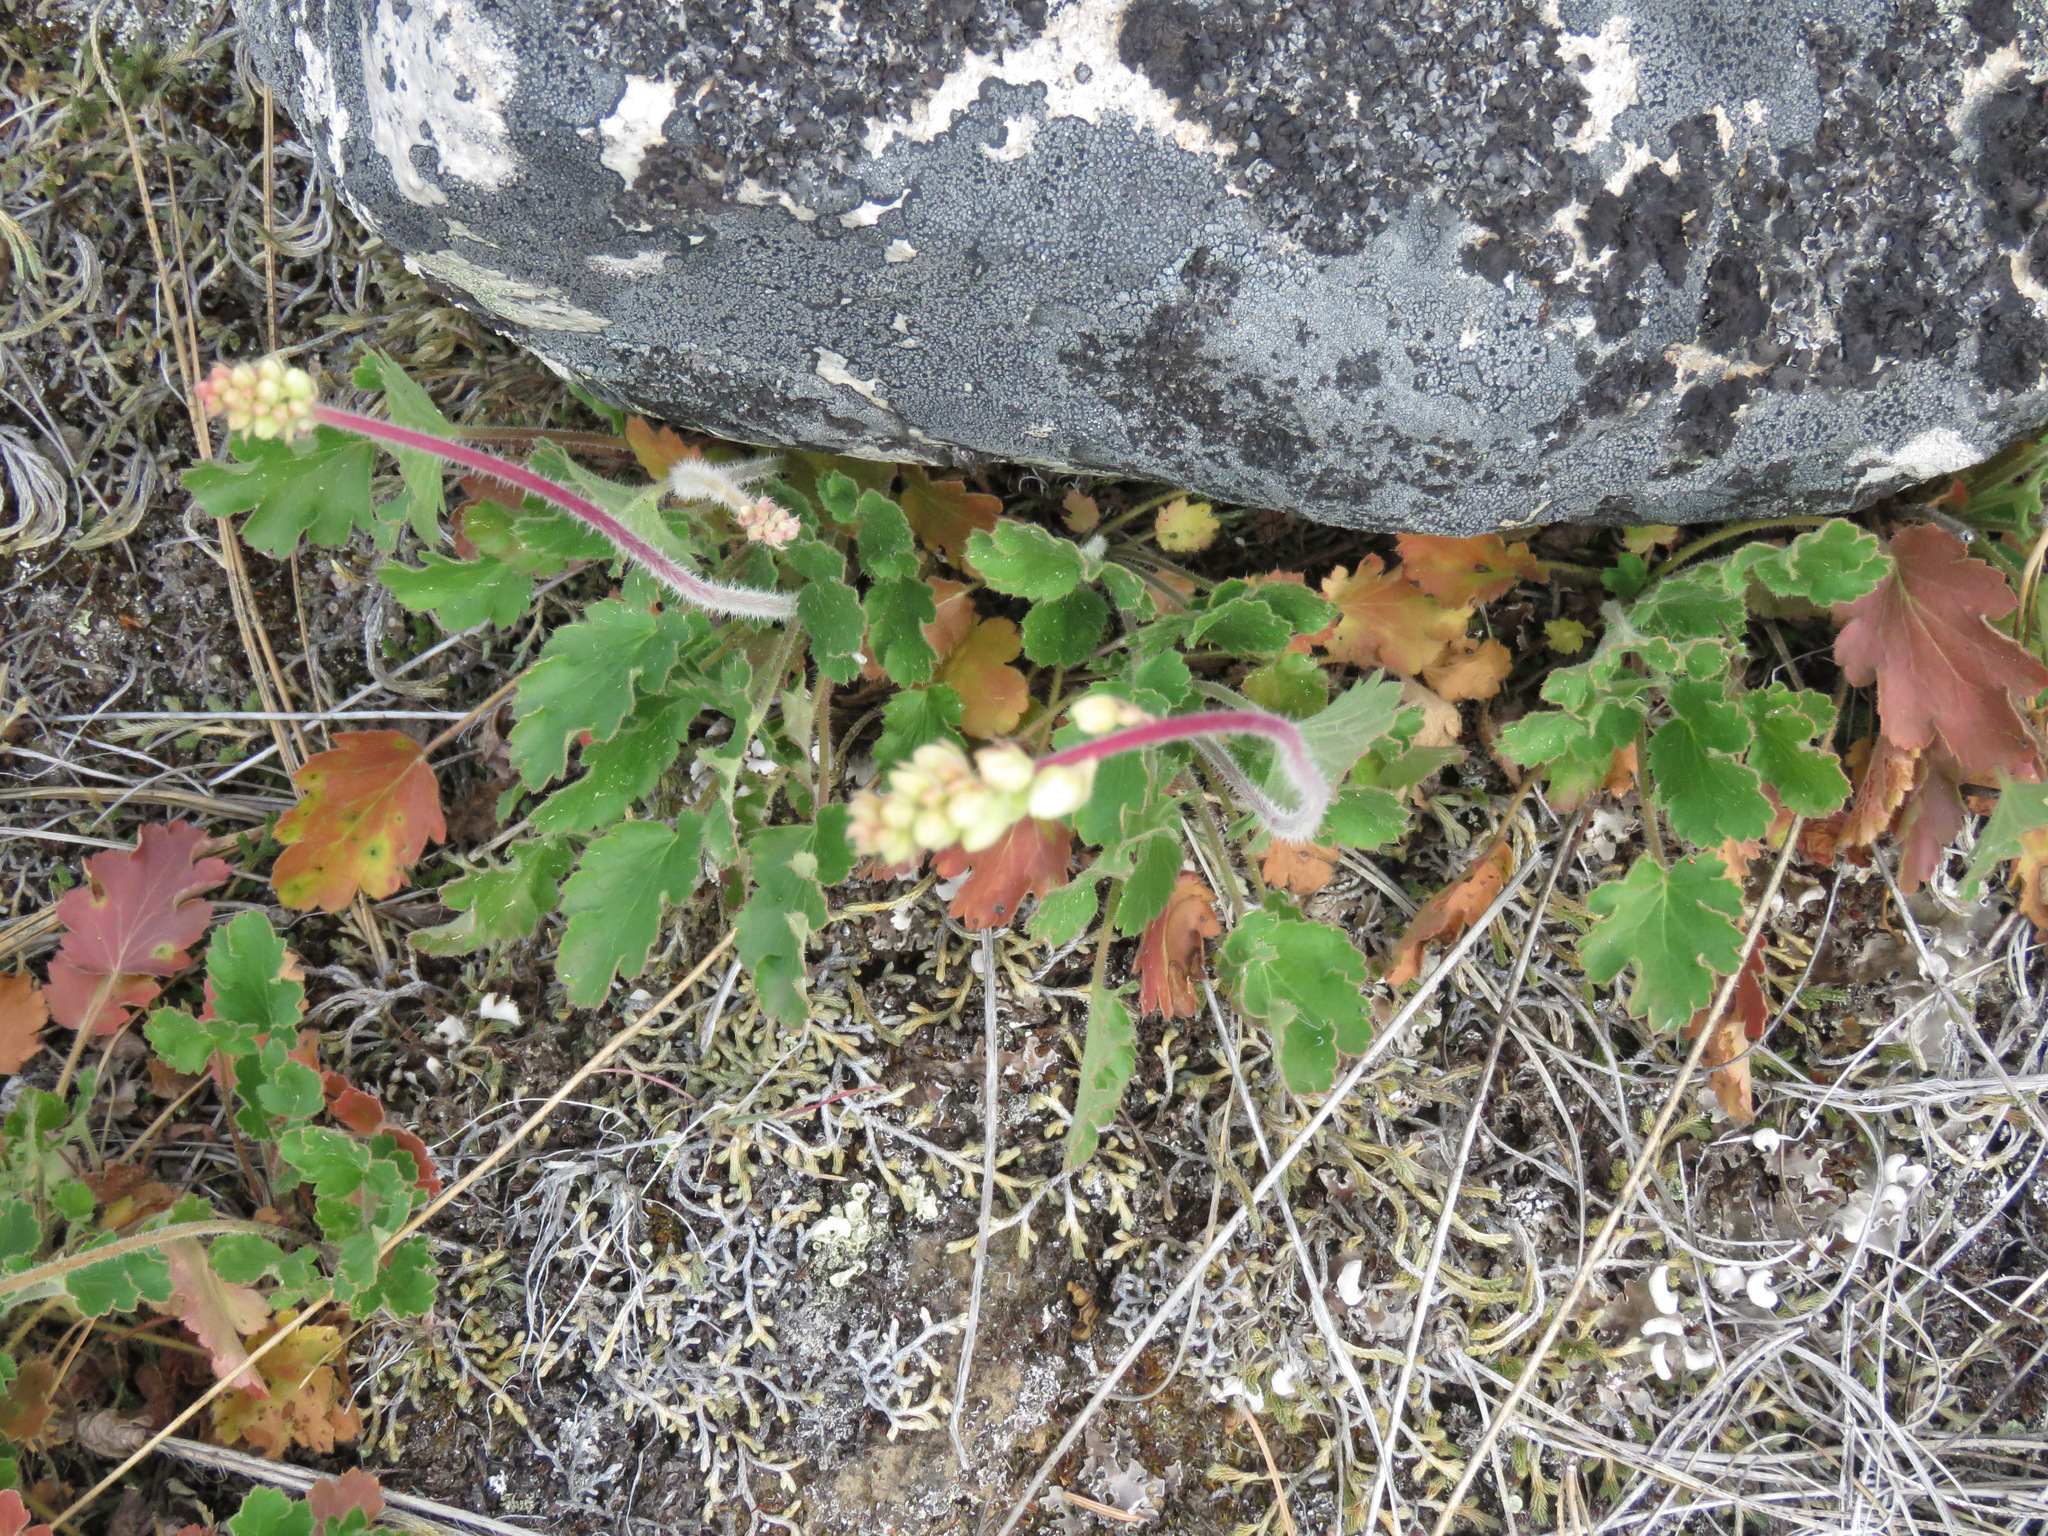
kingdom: Plantae
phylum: Tracheophyta
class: Magnoliopsida
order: Saxifragales
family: Saxifragaceae
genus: Heuchera
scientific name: Heuchera cylindrica
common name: Mat alumroot
